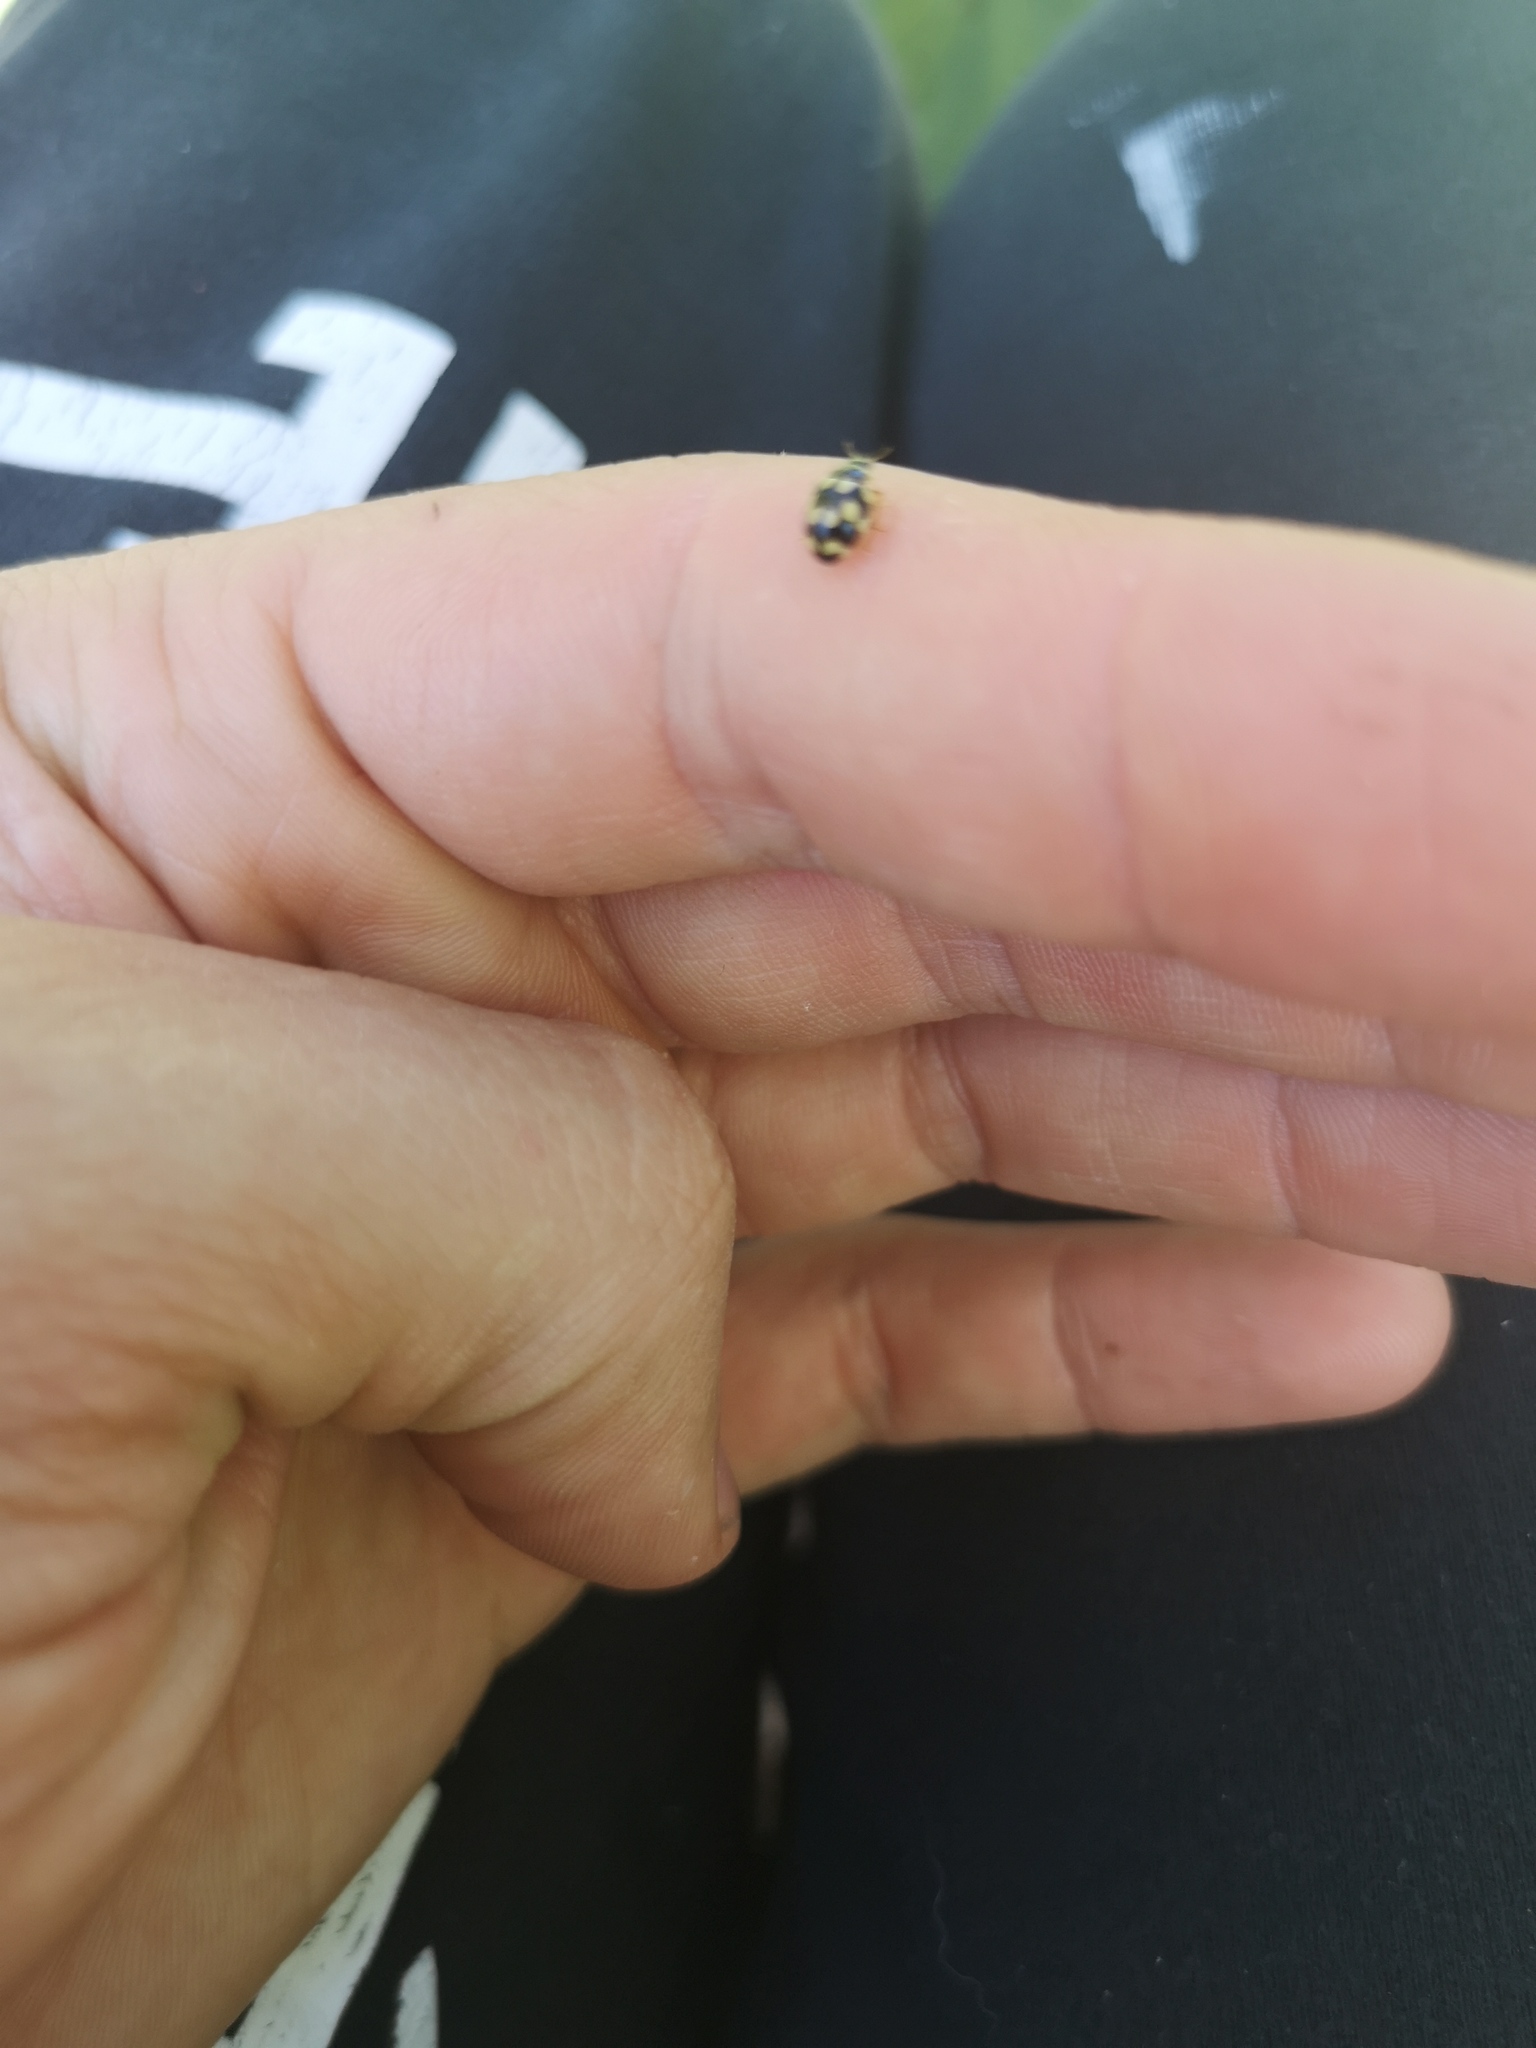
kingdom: Animalia
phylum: Arthropoda
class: Insecta
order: Coleoptera
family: Coccinellidae
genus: Propylaea
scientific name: Propylaea quatuordecimpunctata
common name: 14-spotted ladybird beetle
